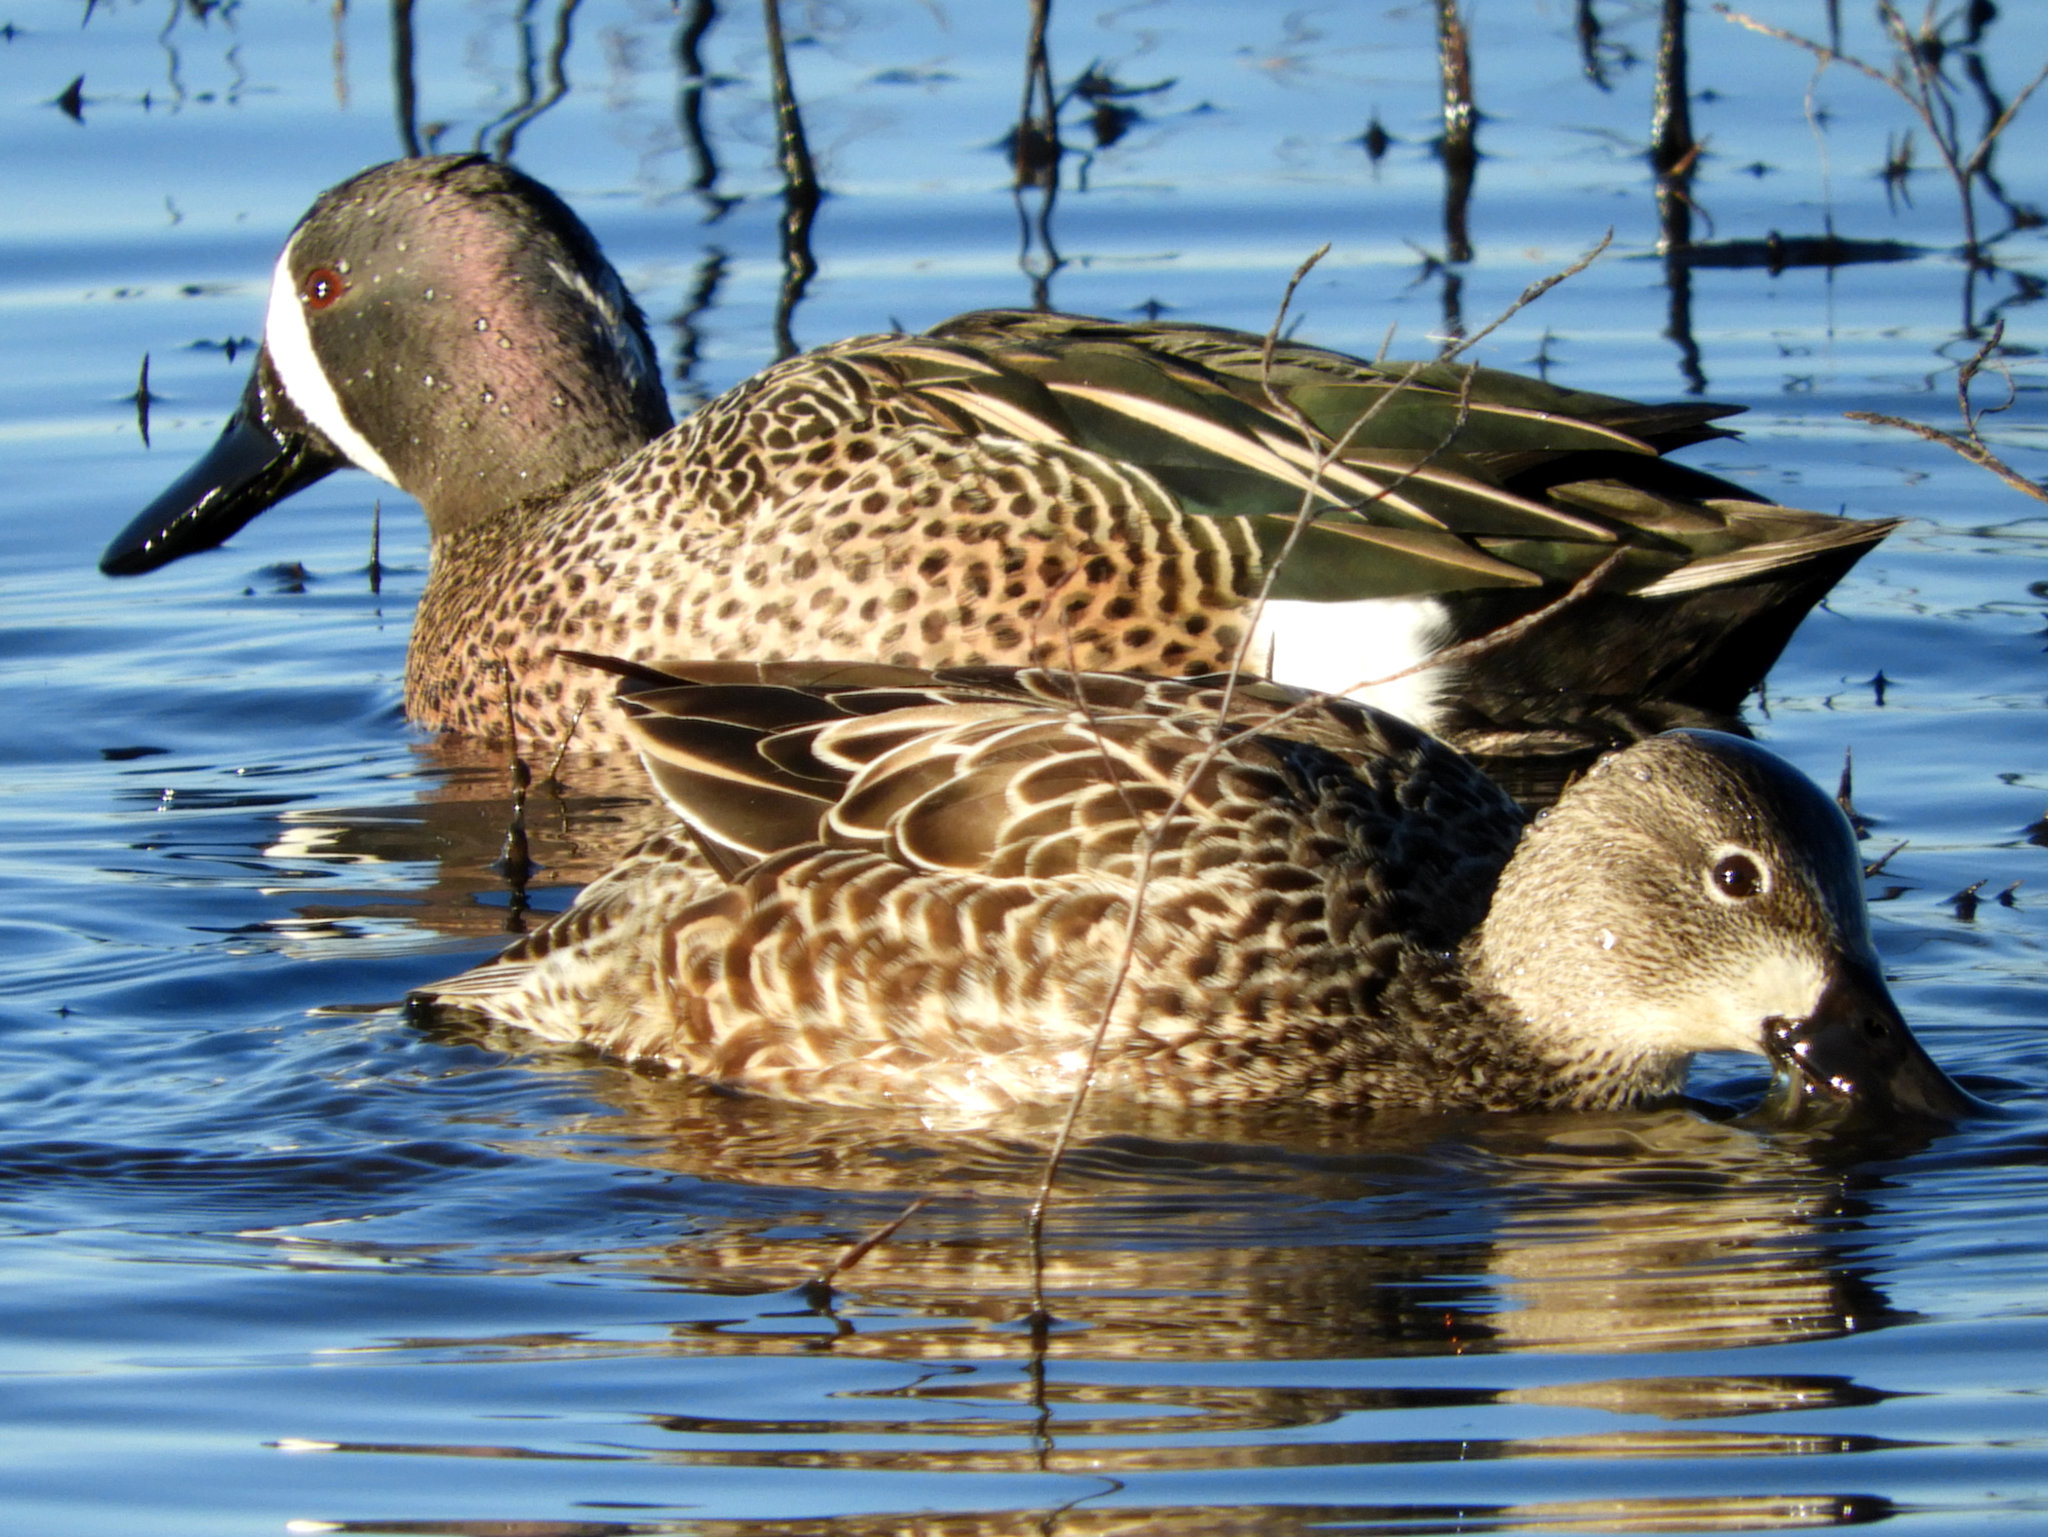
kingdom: Animalia
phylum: Chordata
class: Aves
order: Anseriformes
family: Anatidae
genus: Spatula
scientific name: Spatula discors
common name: Blue-winged teal
